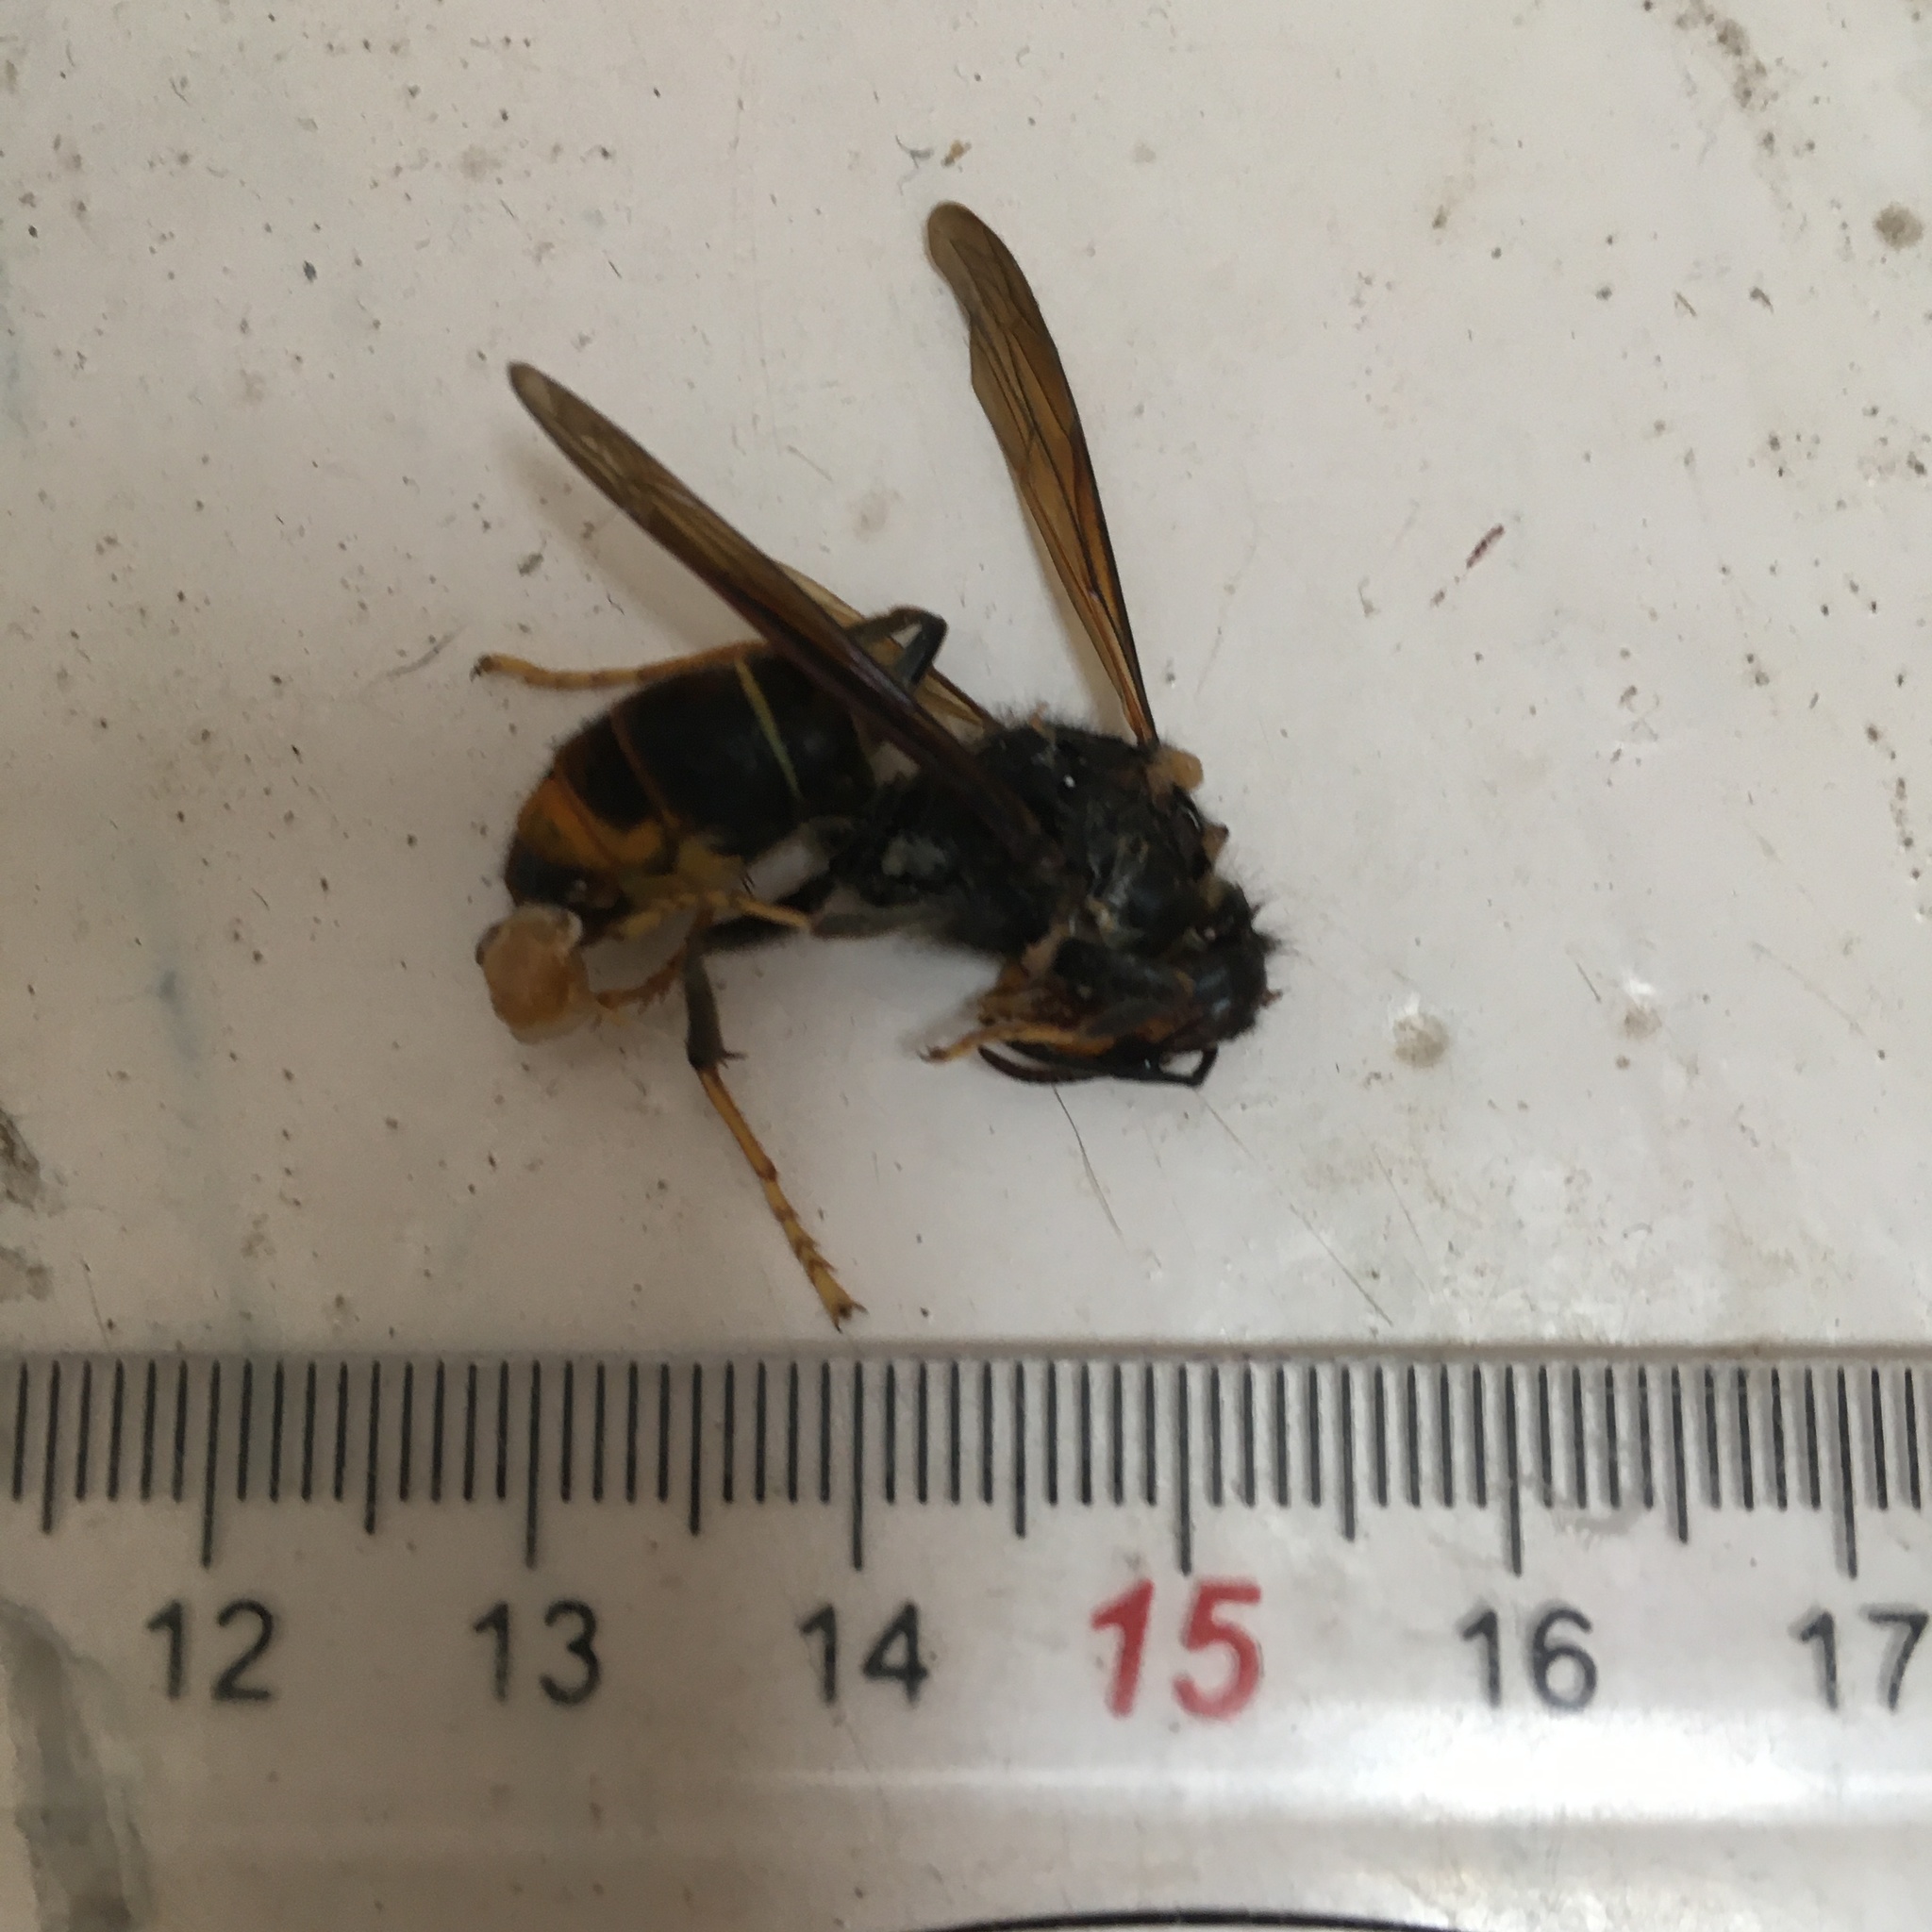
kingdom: Animalia
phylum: Arthropoda
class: Insecta
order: Hymenoptera
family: Vespidae
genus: Vespa
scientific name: Vespa velutina
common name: Asian hornet
